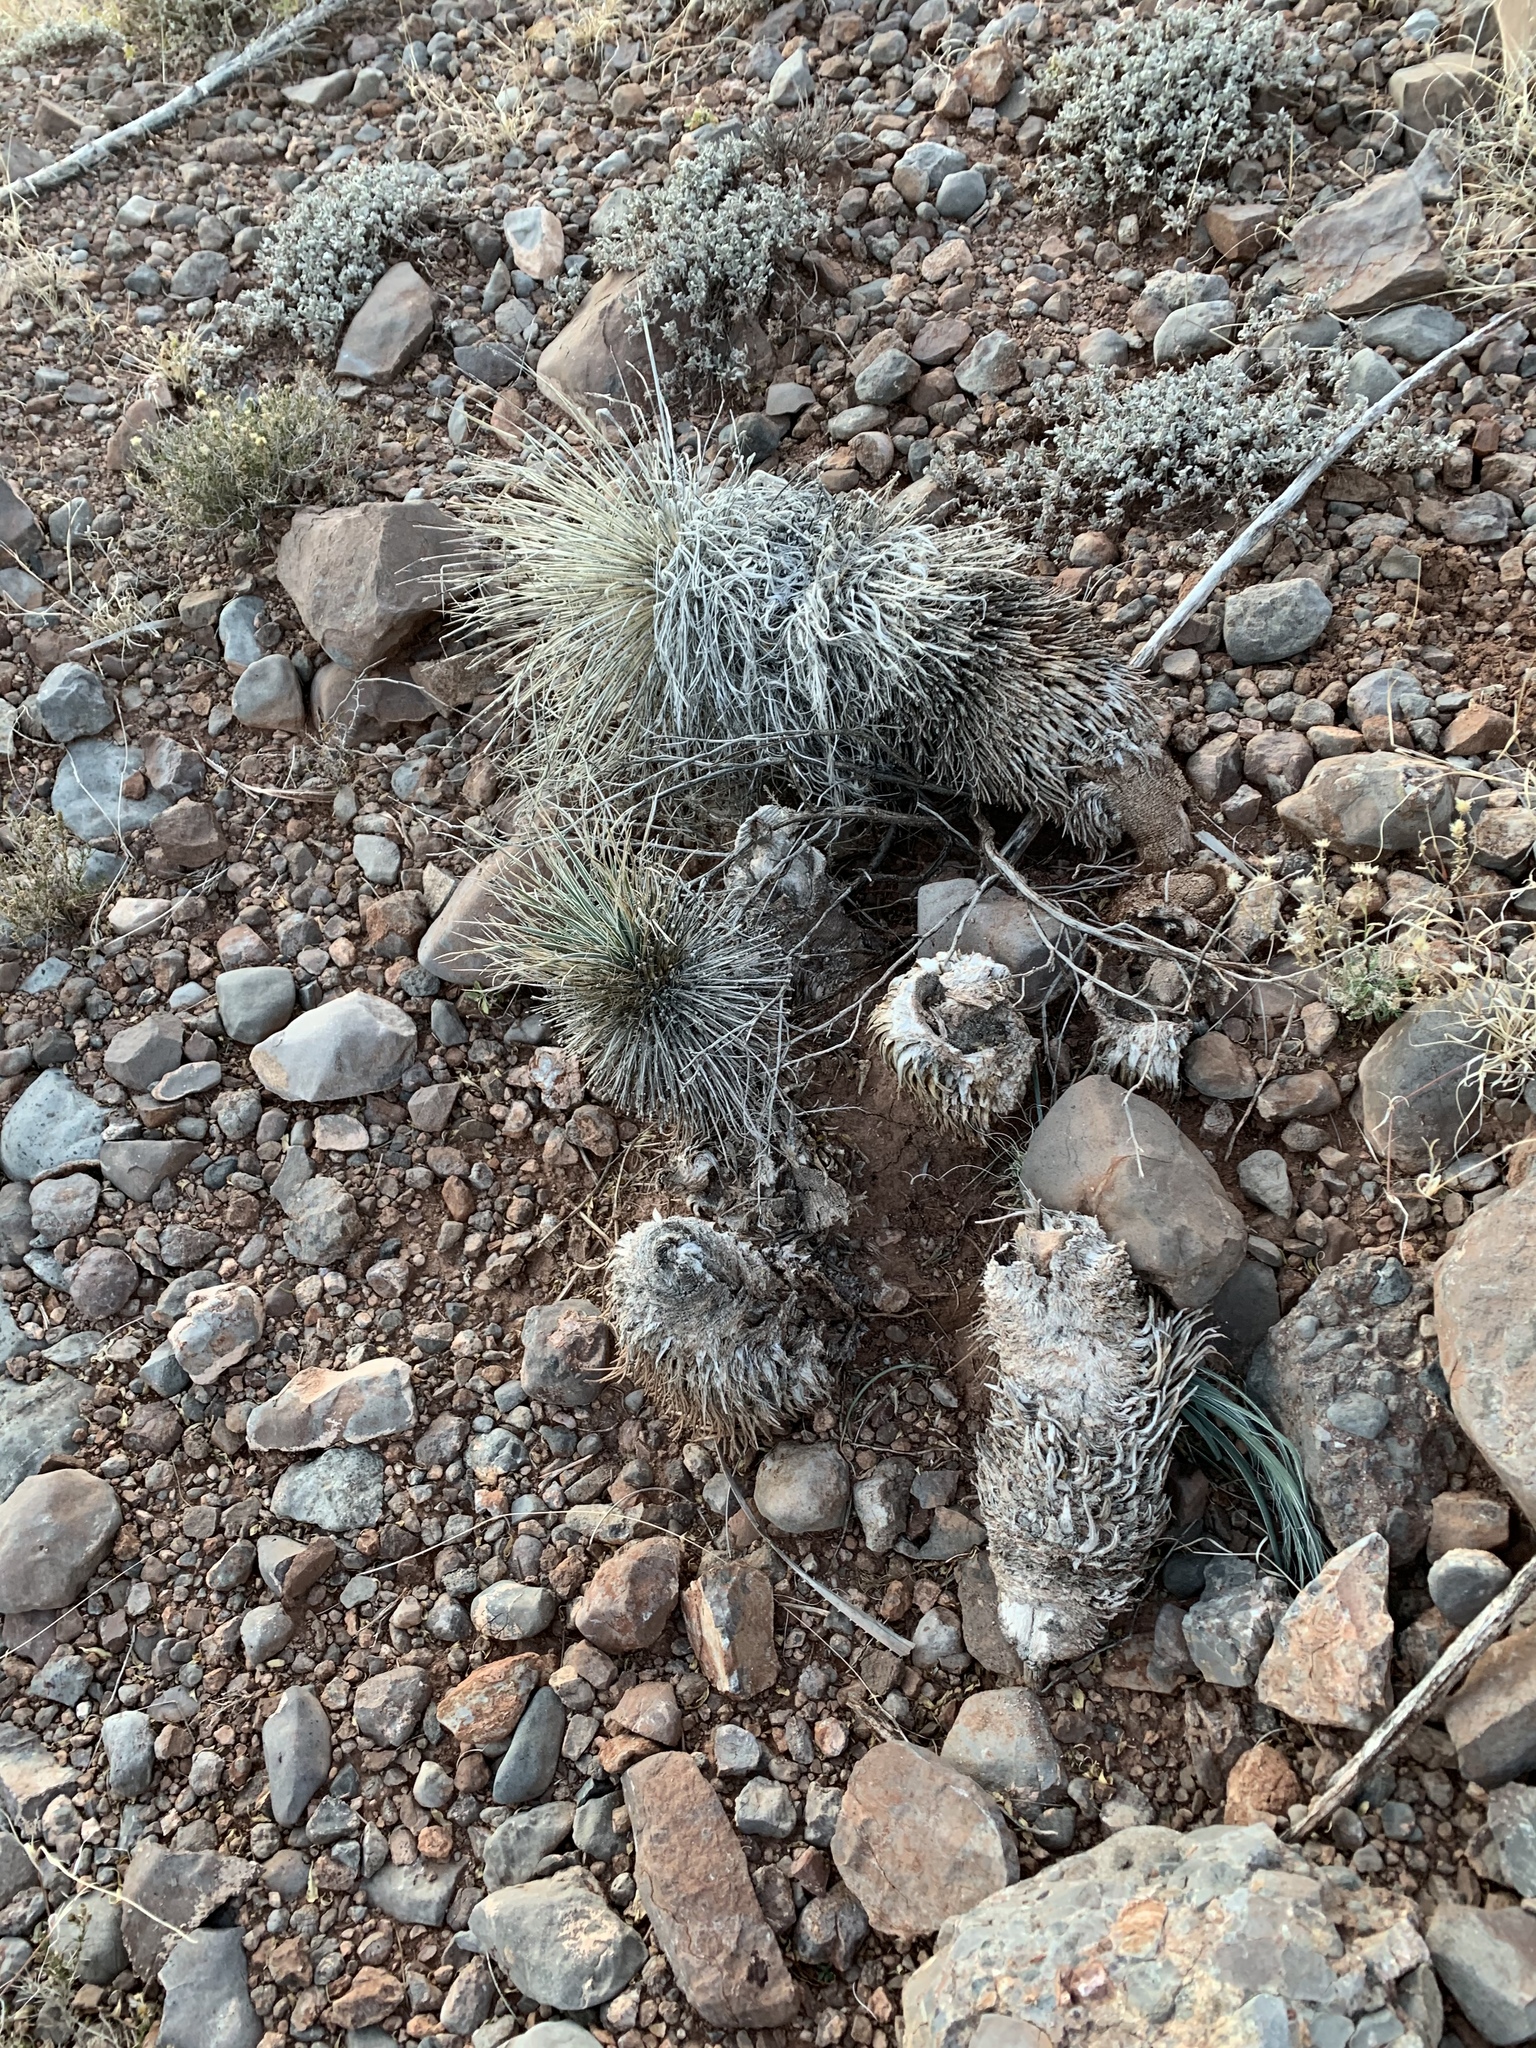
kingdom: Plantae
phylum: Tracheophyta
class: Liliopsida
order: Asparagales
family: Asparagaceae
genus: Yucca
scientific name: Yucca elata
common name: Palmella
